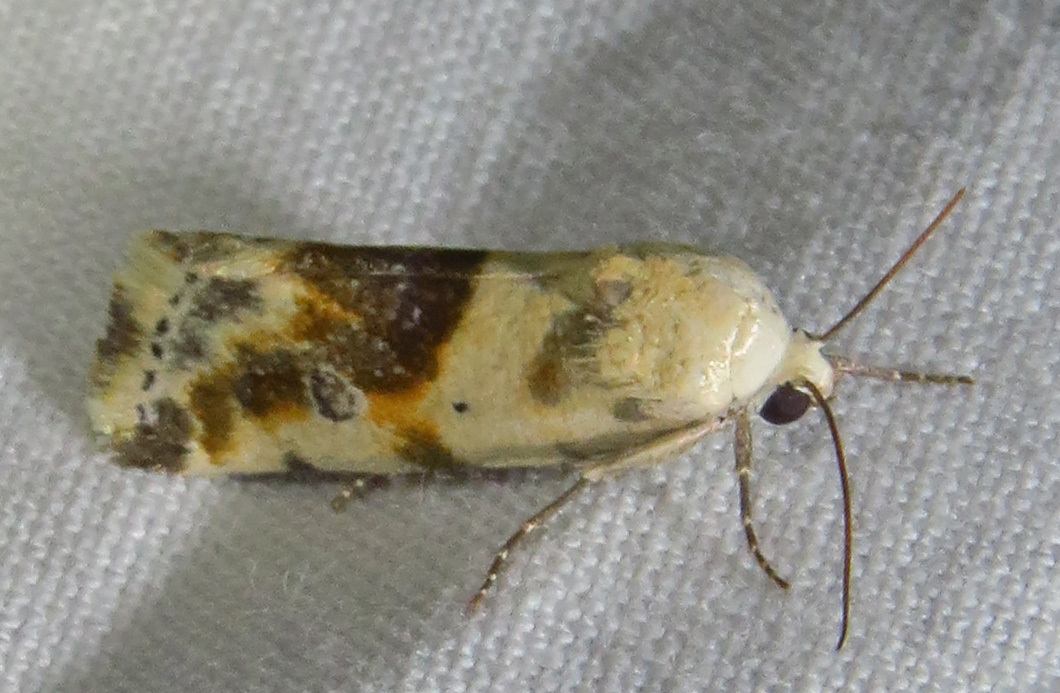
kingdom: Animalia
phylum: Arthropoda
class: Insecta
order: Lepidoptera
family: Noctuidae
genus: Acontia
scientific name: Acontia candefacta
